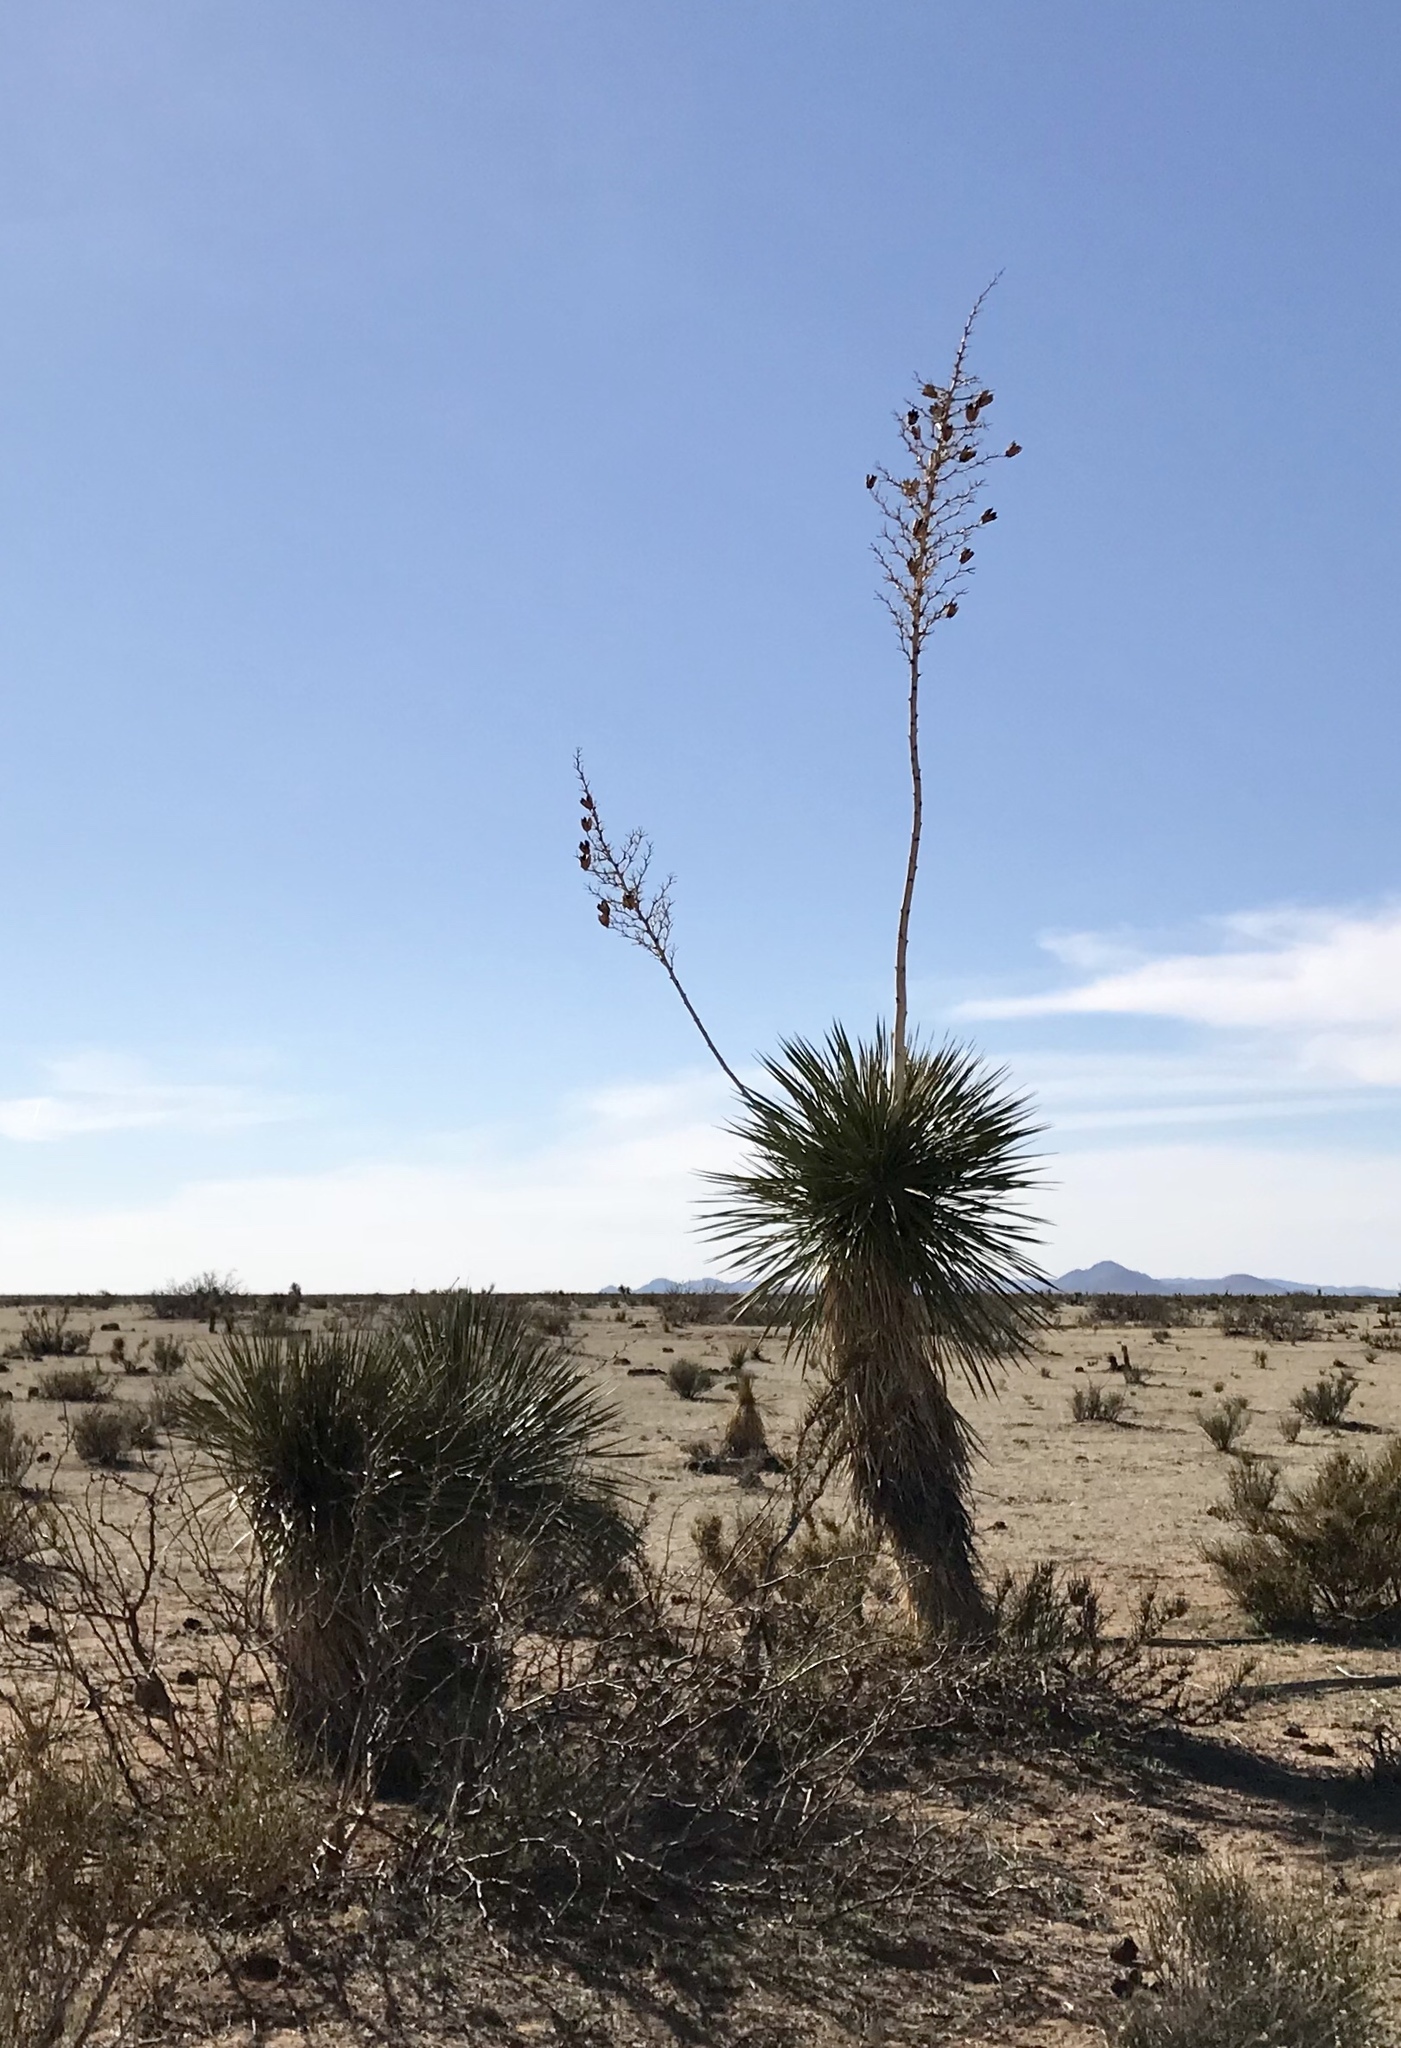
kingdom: Plantae
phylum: Tracheophyta
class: Liliopsida
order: Asparagales
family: Asparagaceae
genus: Yucca
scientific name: Yucca elata
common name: Palmella
